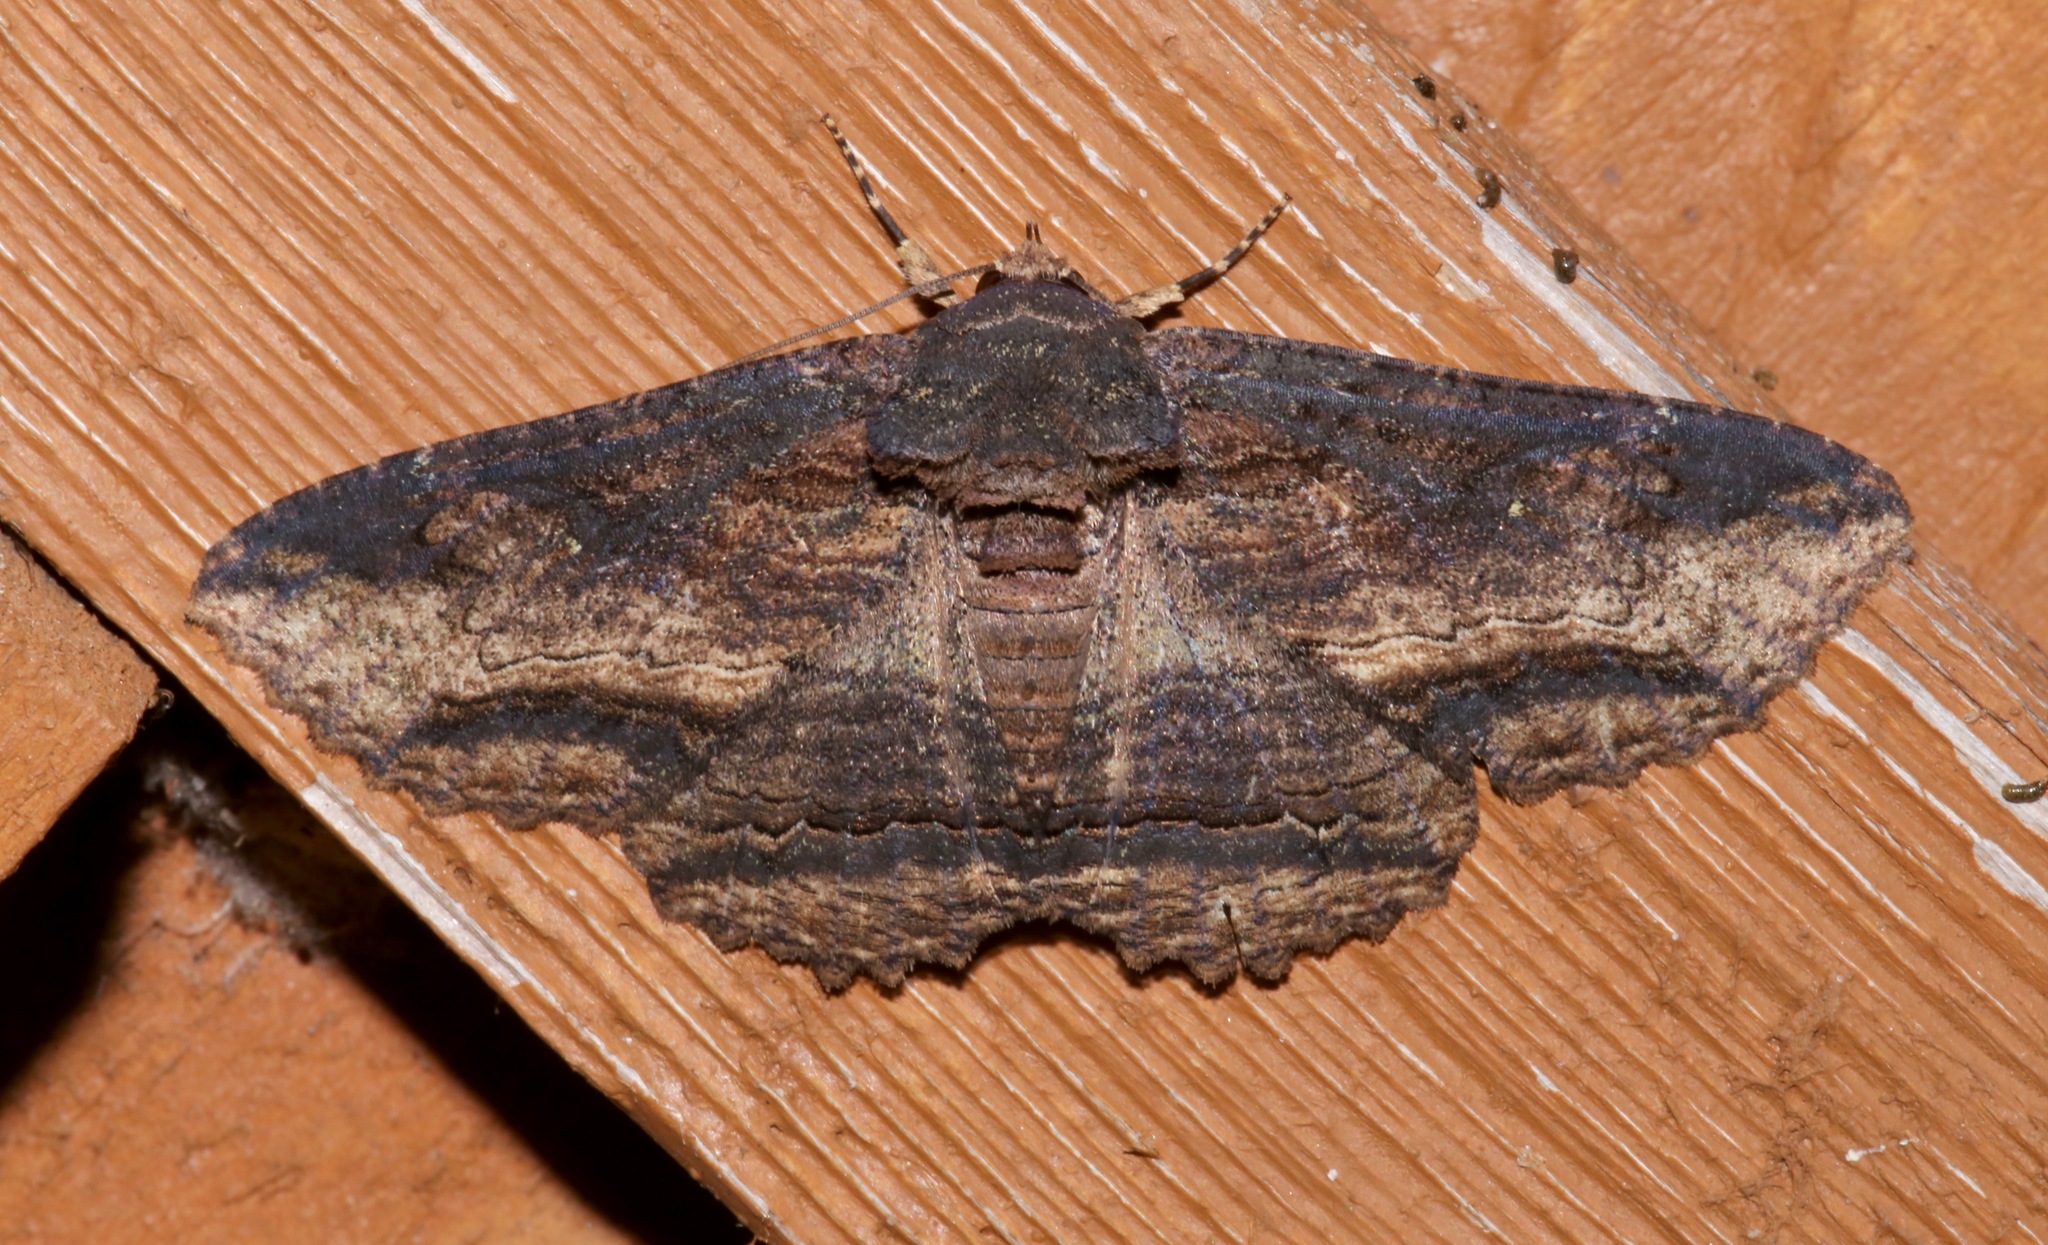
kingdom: Animalia
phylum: Arthropoda
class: Insecta
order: Lepidoptera
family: Erebidae
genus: Zale
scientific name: Zale lunata
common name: Lunate zale moth
